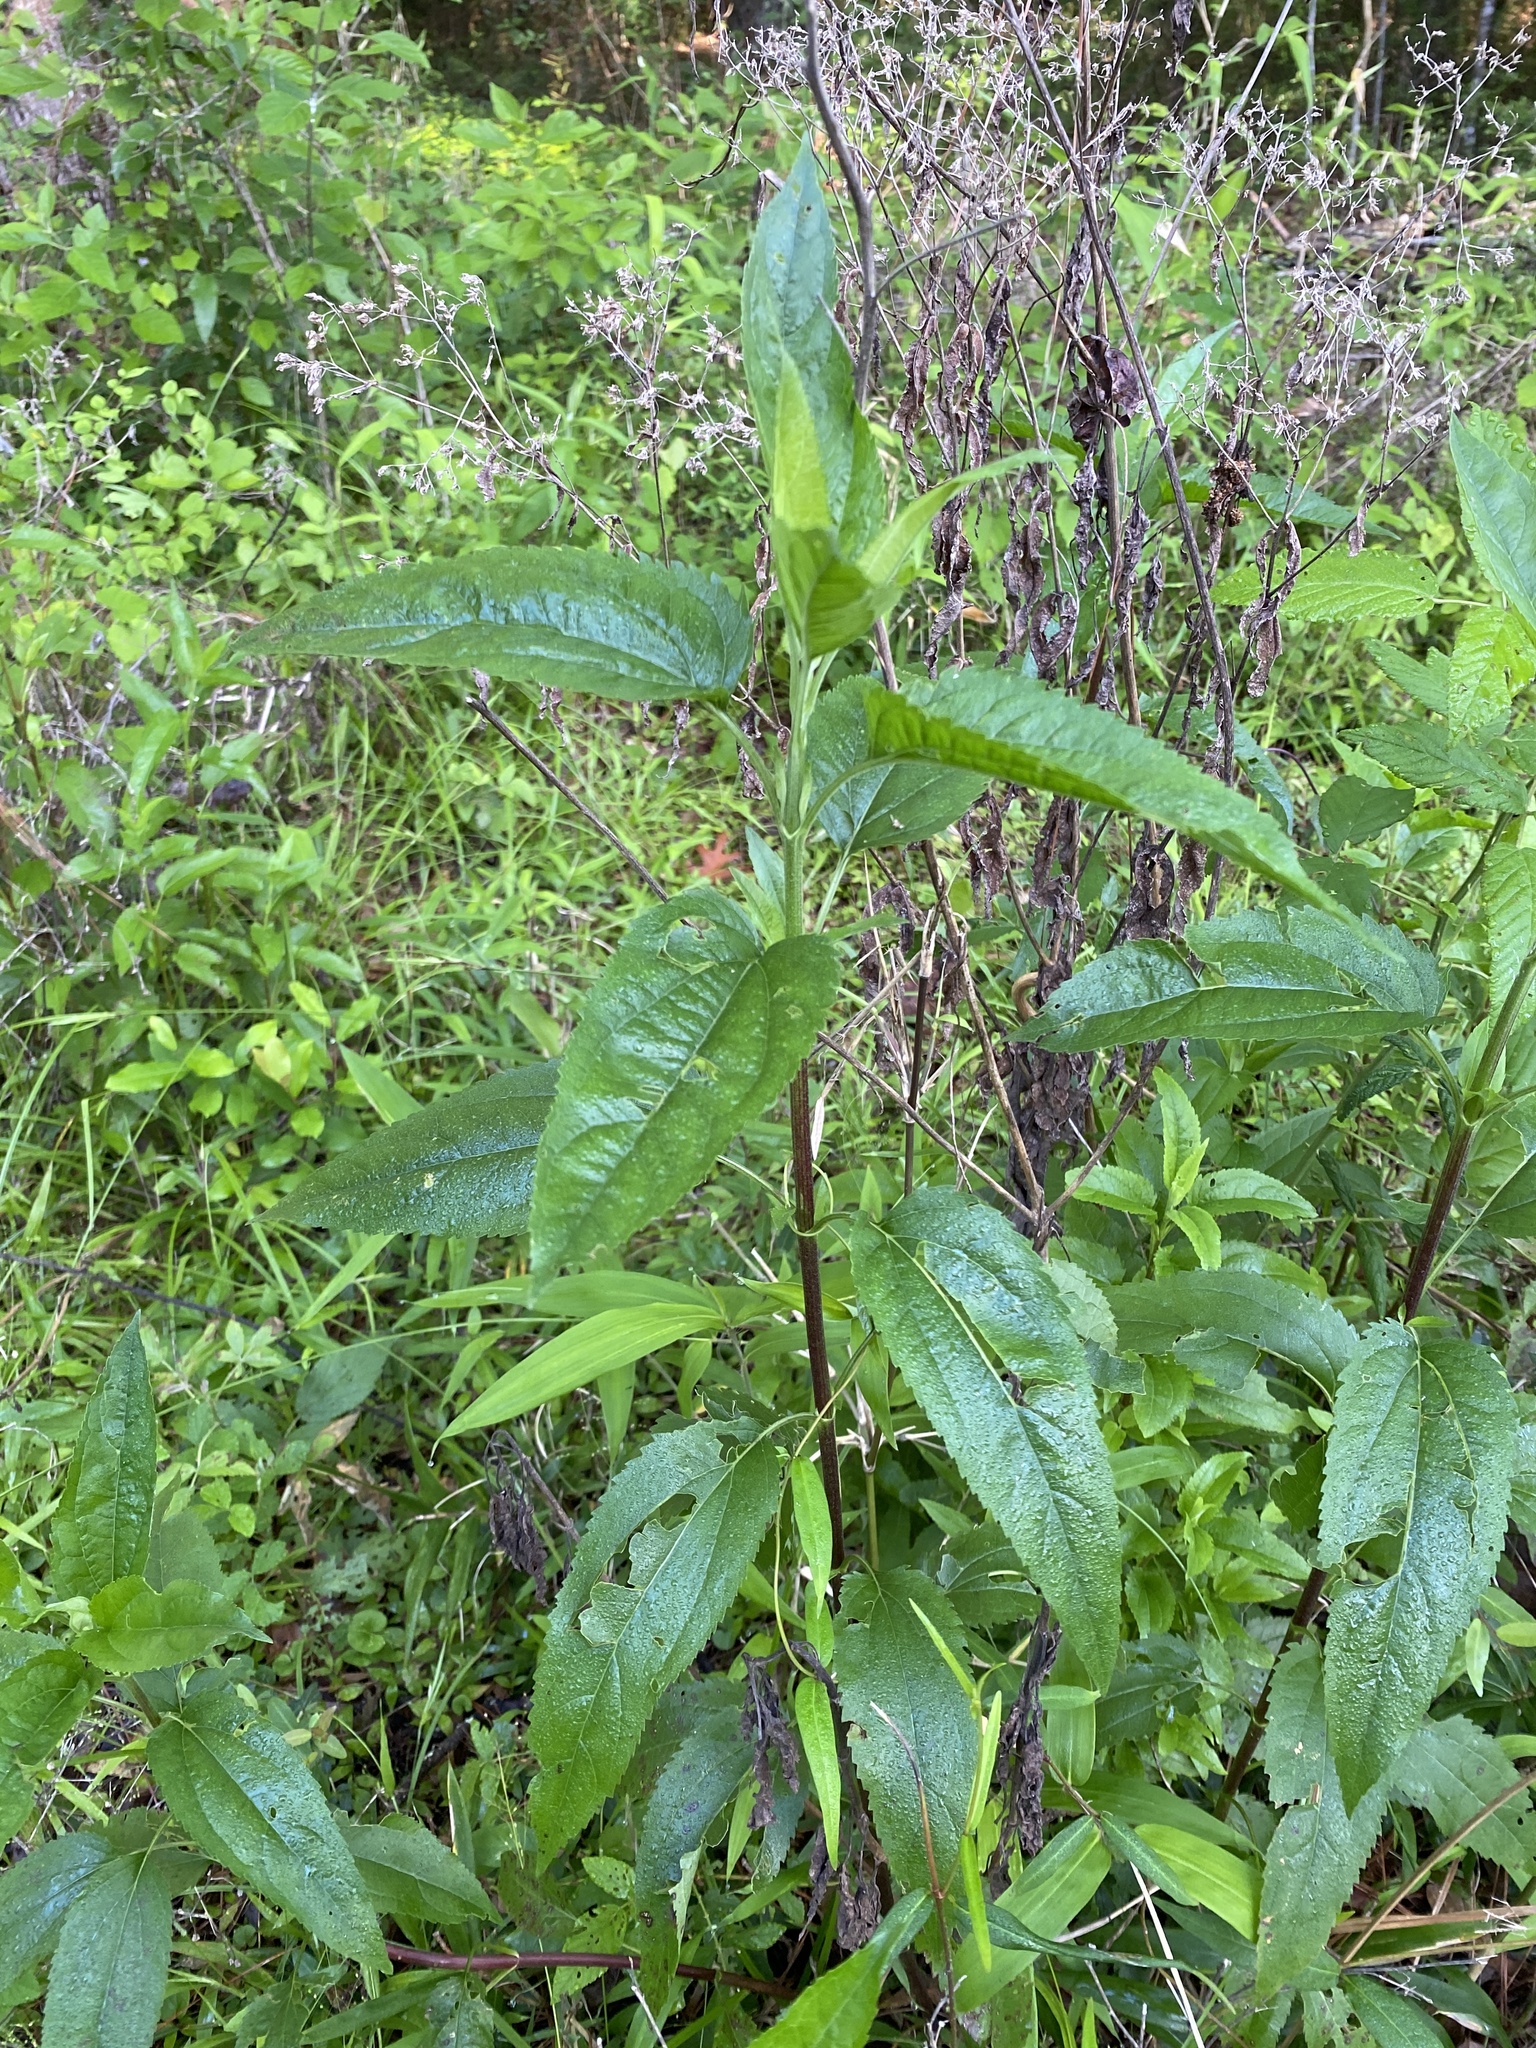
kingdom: Plantae
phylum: Tracheophyta
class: Magnoliopsida
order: Asterales
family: Asteraceae
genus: Eupatorium
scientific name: Eupatorium serotinum
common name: Late boneset
